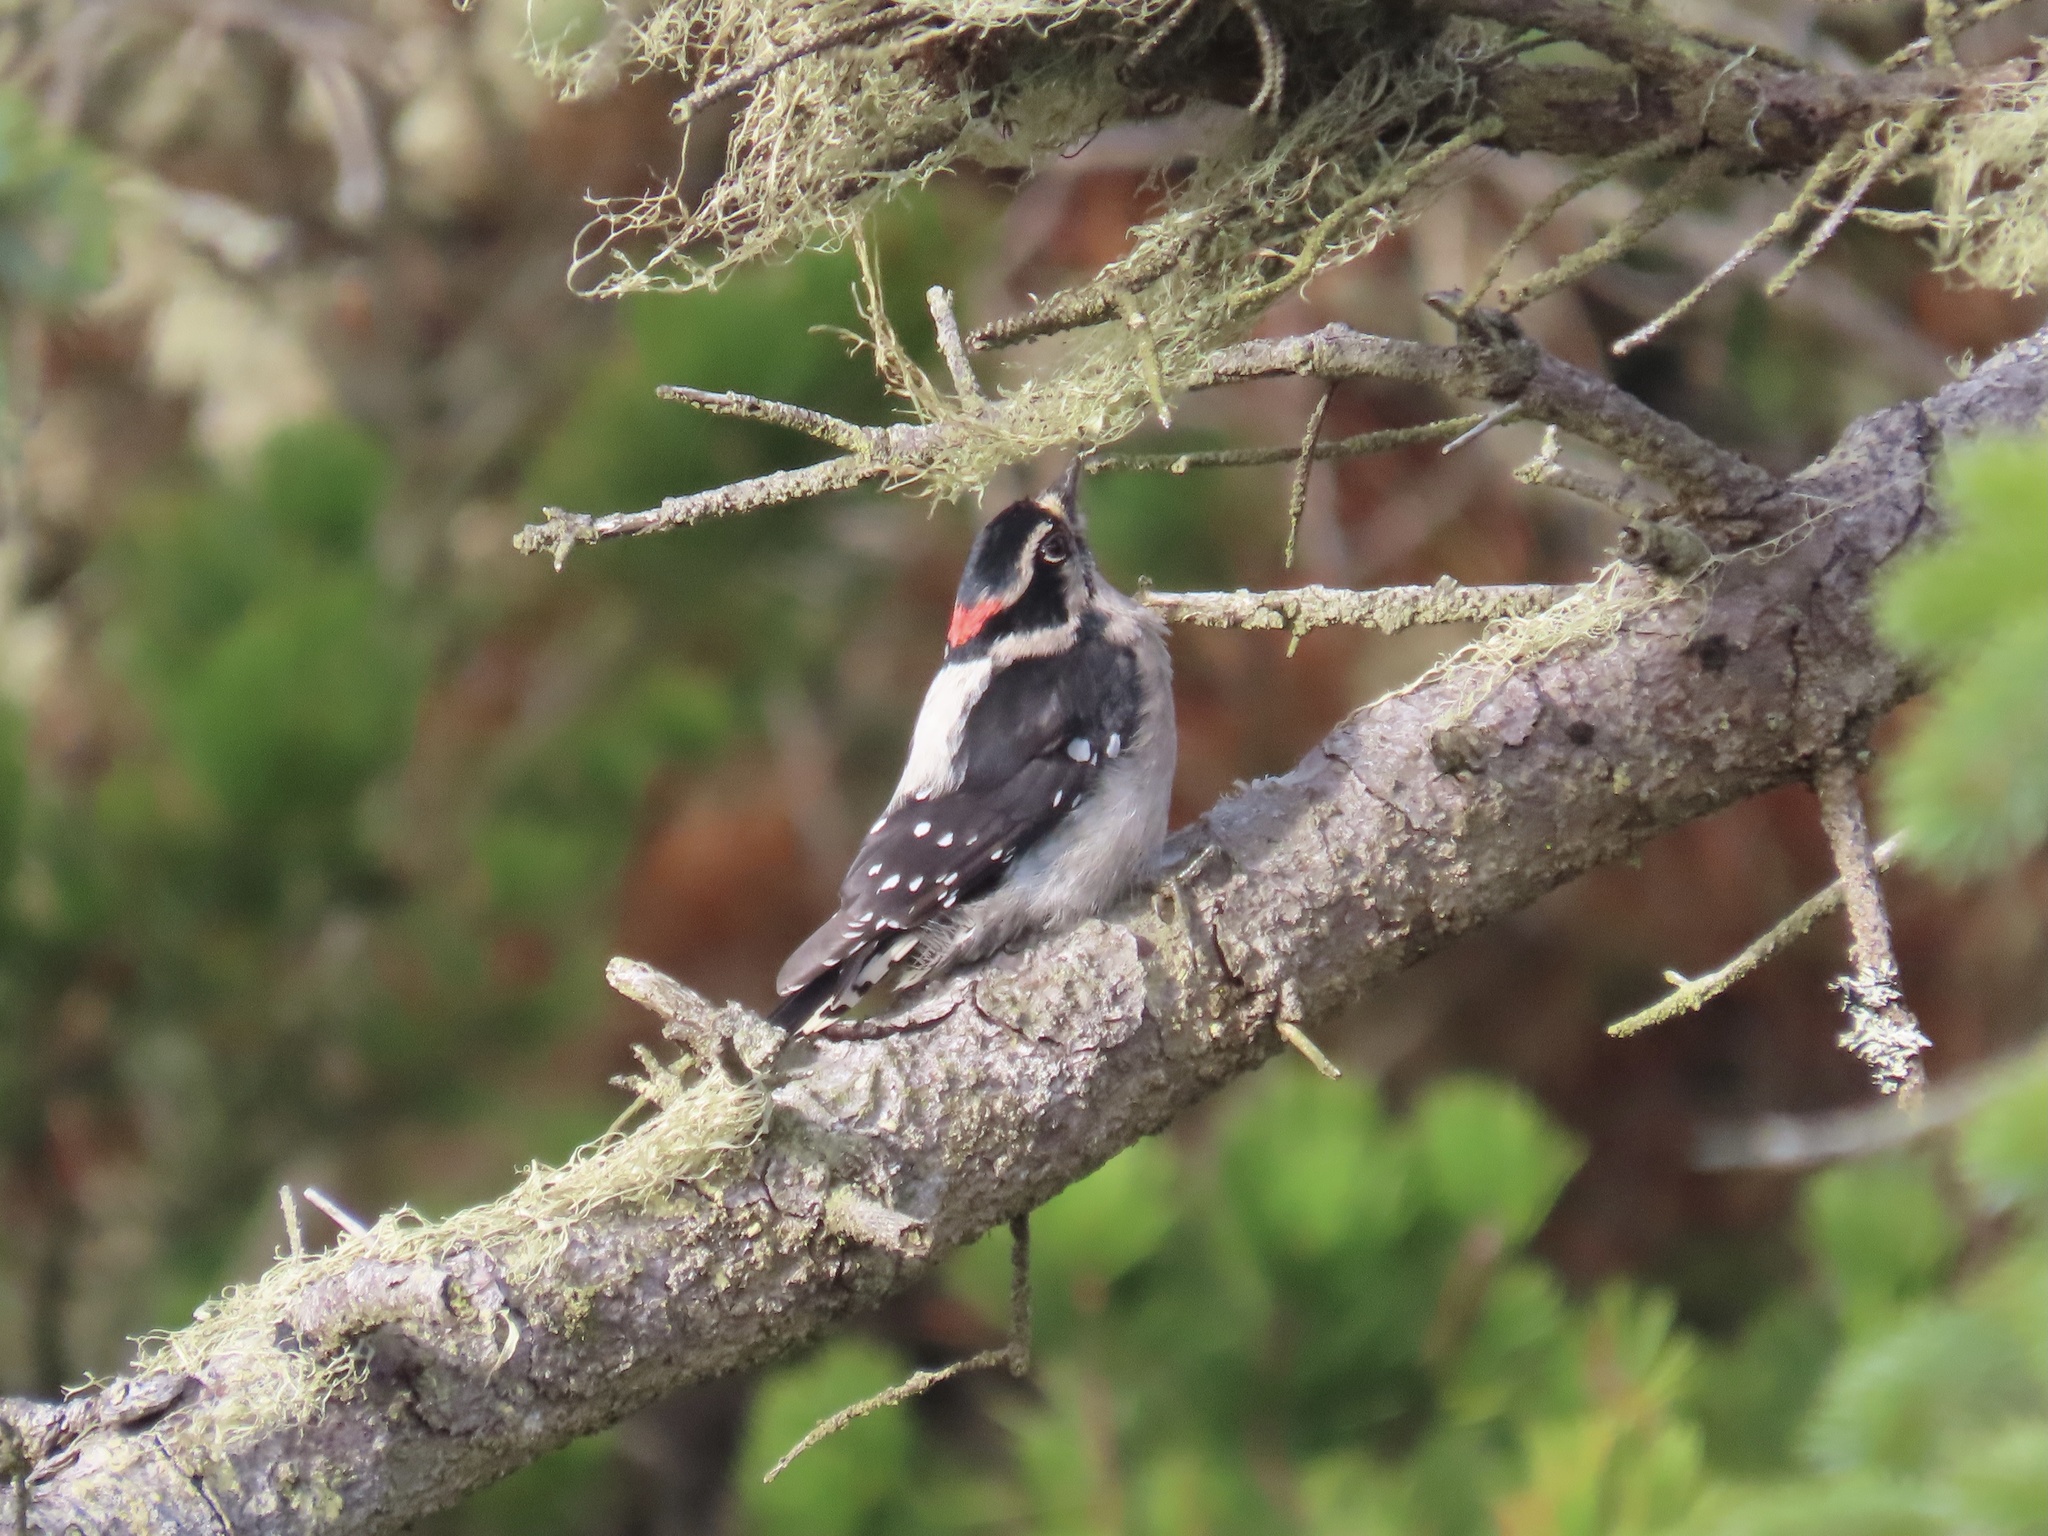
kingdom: Animalia
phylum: Chordata
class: Aves
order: Piciformes
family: Picidae
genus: Dryobates
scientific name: Dryobates pubescens
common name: Downy woodpecker
